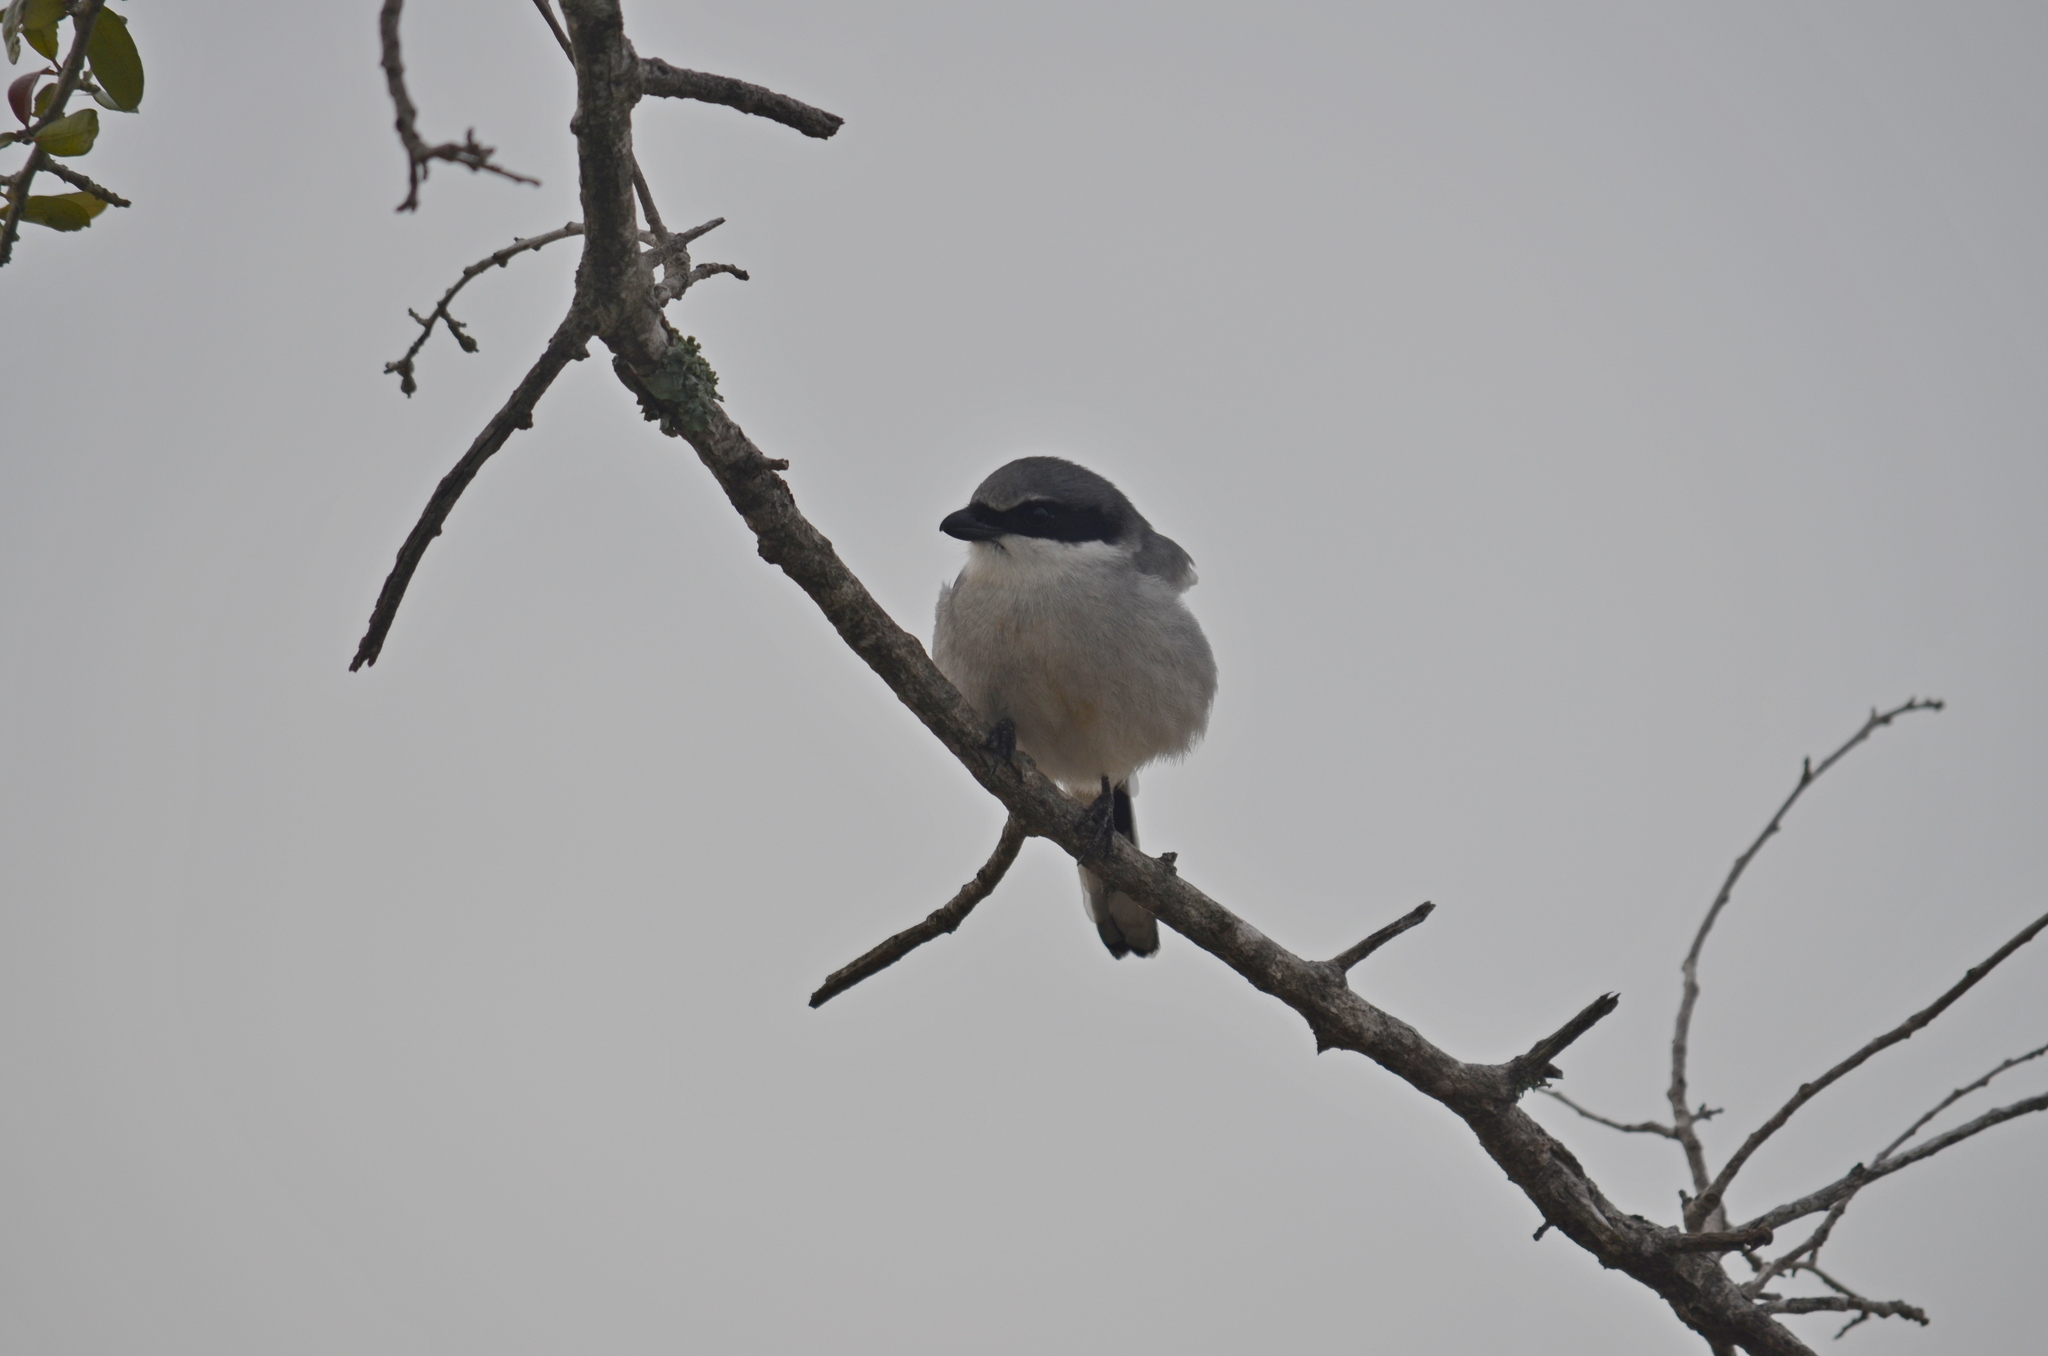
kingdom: Animalia
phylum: Chordata
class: Aves
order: Passeriformes
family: Laniidae
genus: Lanius
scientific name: Lanius ludovicianus
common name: Loggerhead shrike
